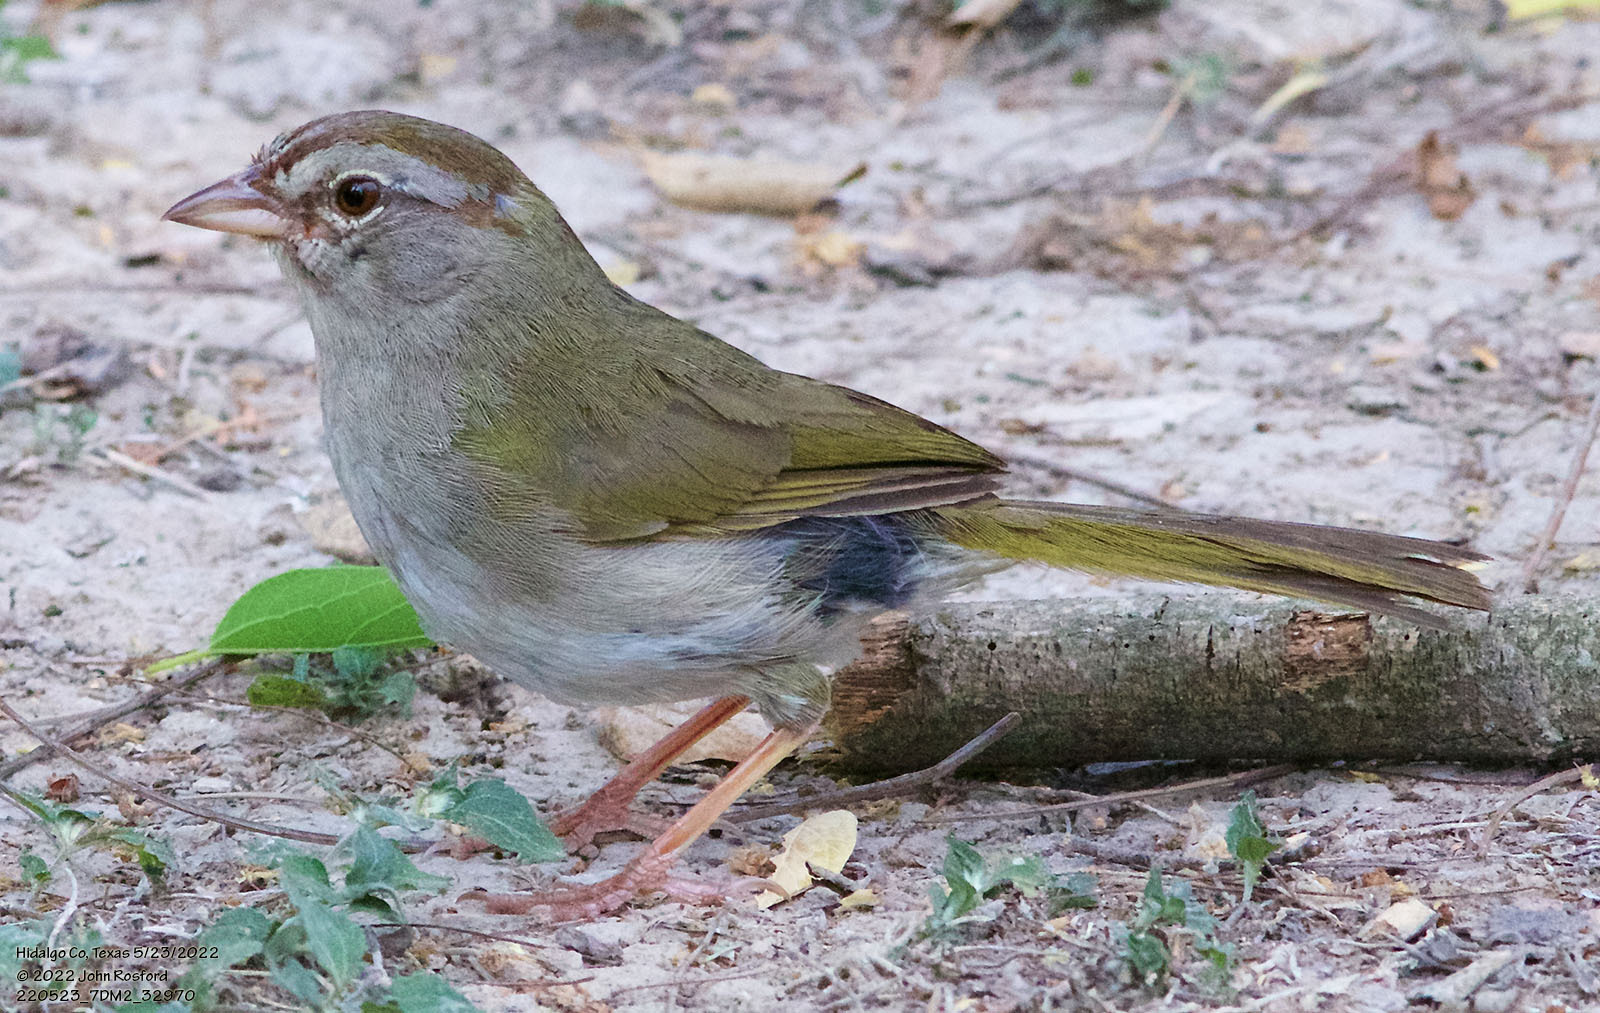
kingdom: Animalia
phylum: Chordata
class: Aves
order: Passeriformes
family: Passerellidae
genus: Arremonops
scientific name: Arremonops rufivirgatus
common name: Olive sparrow
